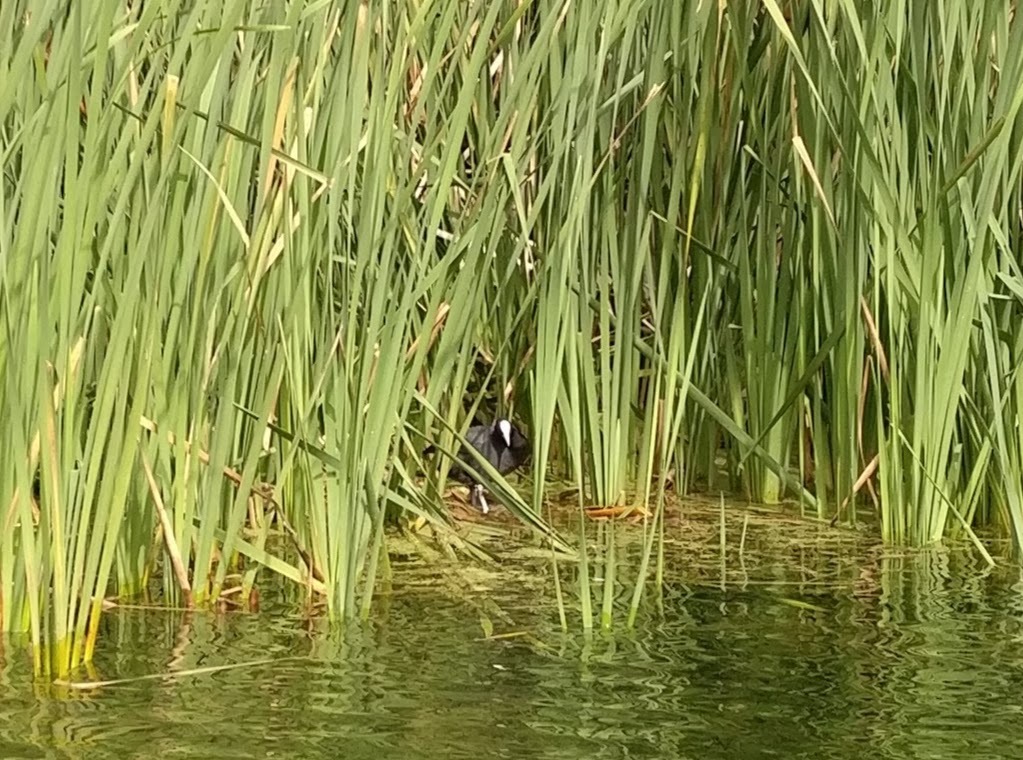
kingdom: Animalia
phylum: Chordata
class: Aves
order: Gruiformes
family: Rallidae
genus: Fulica
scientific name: Fulica atra
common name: Eurasian coot
